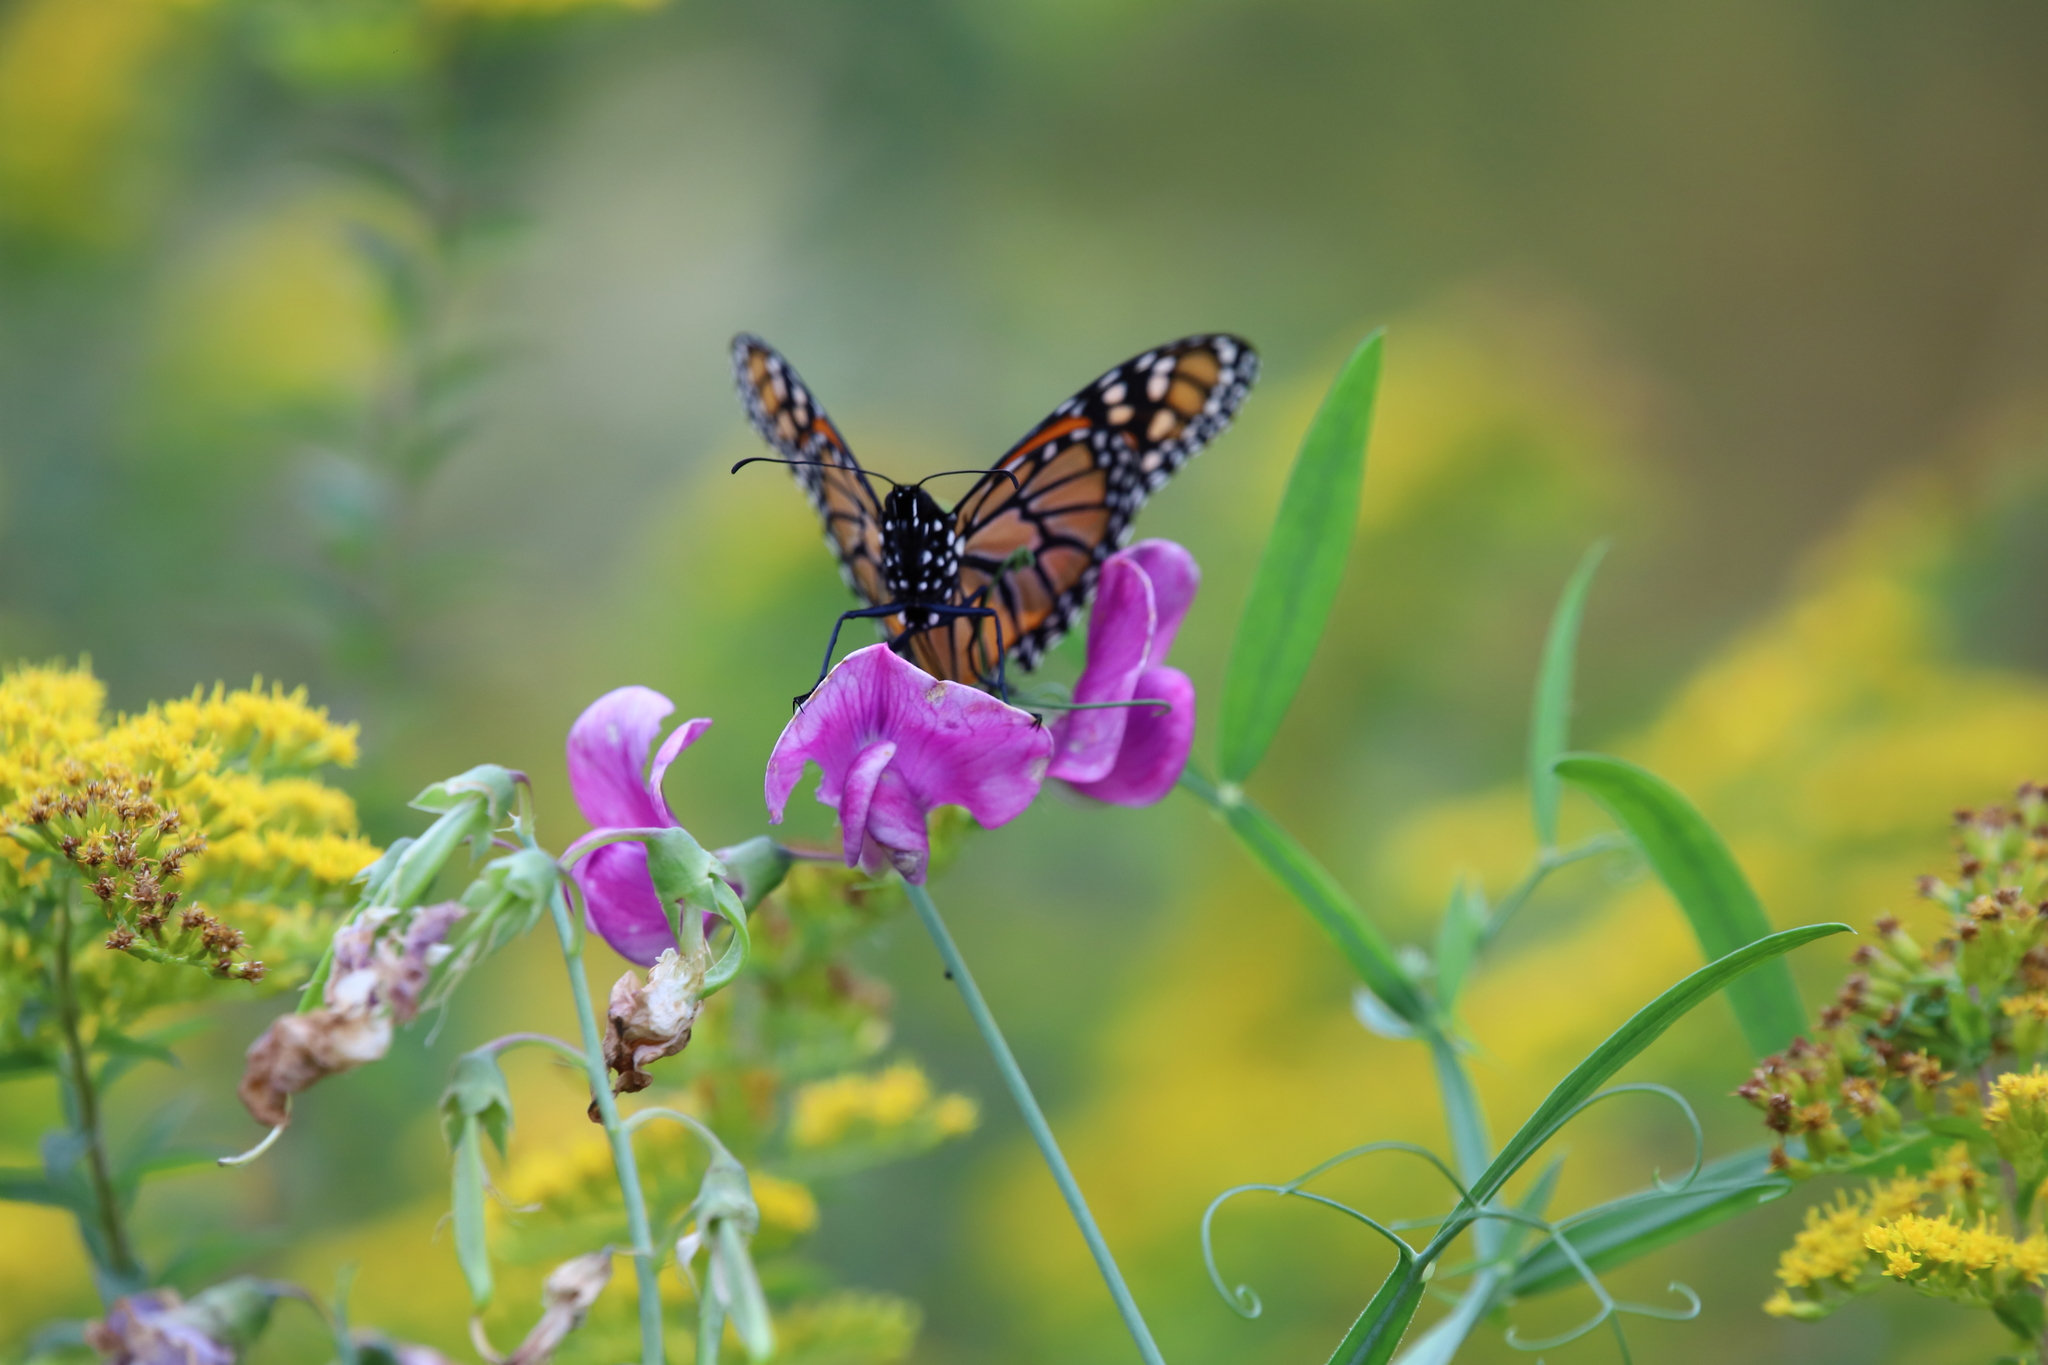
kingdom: Animalia
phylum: Arthropoda
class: Insecta
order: Lepidoptera
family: Nymphalidae
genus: Danaus
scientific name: Danaus plexippus
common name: Monarch
